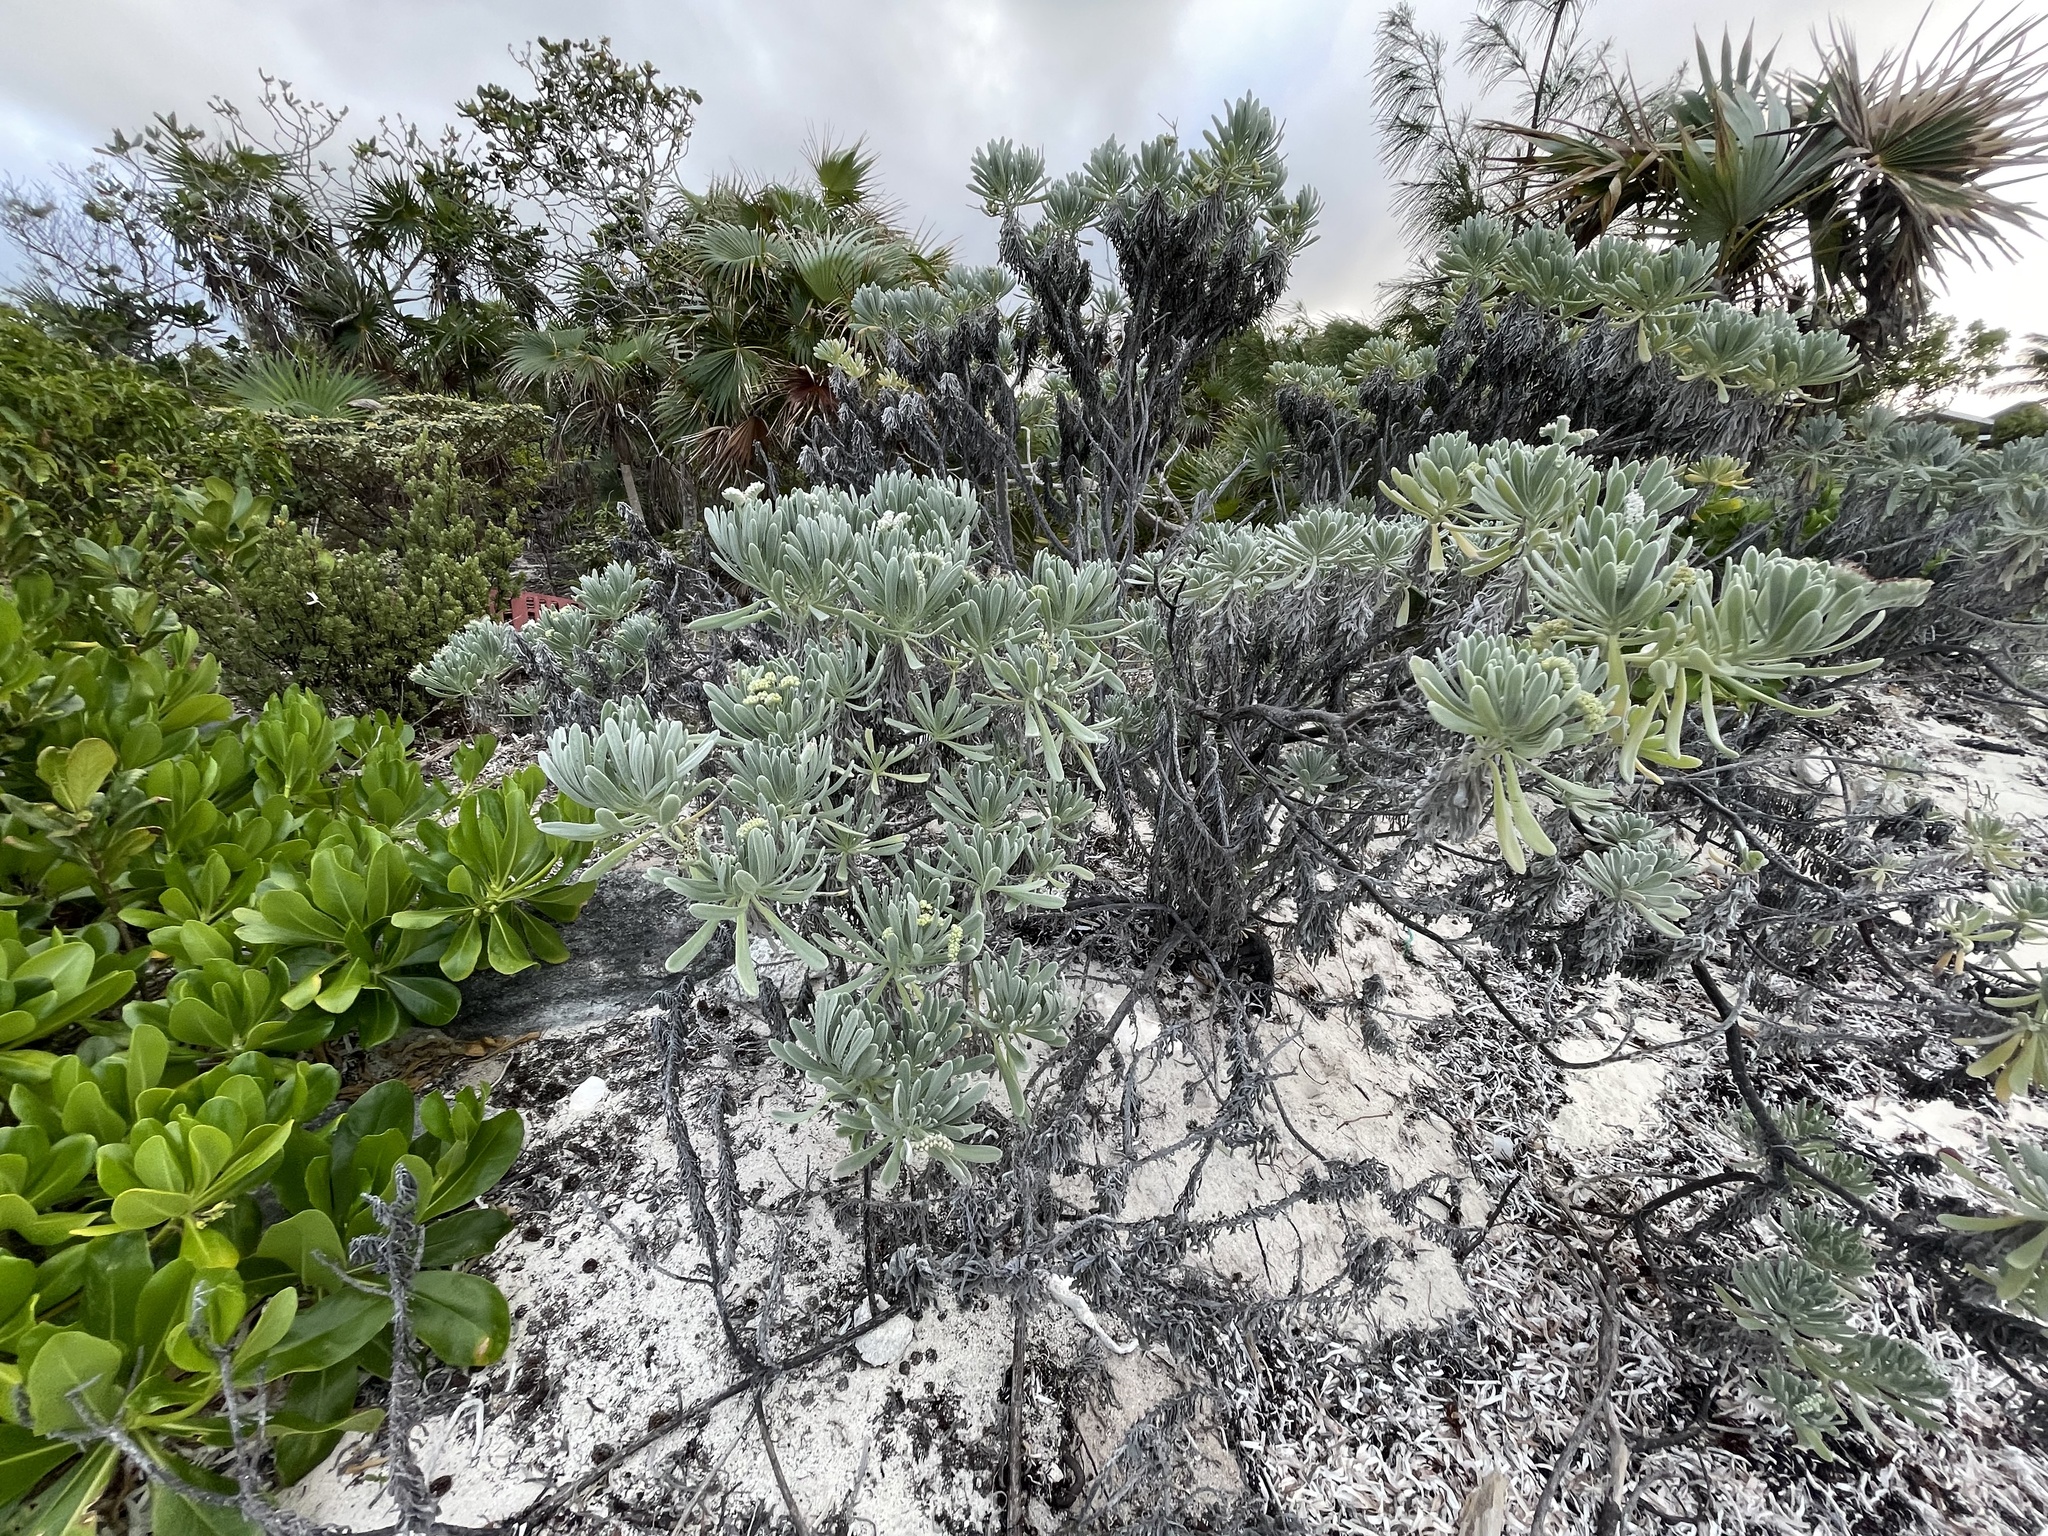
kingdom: Plantae
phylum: Tracheophyta
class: Magnoliopsida
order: Boraginales
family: Heliotropiaceae
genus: Tournefortia
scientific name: Tournefortia gnaphalodes
